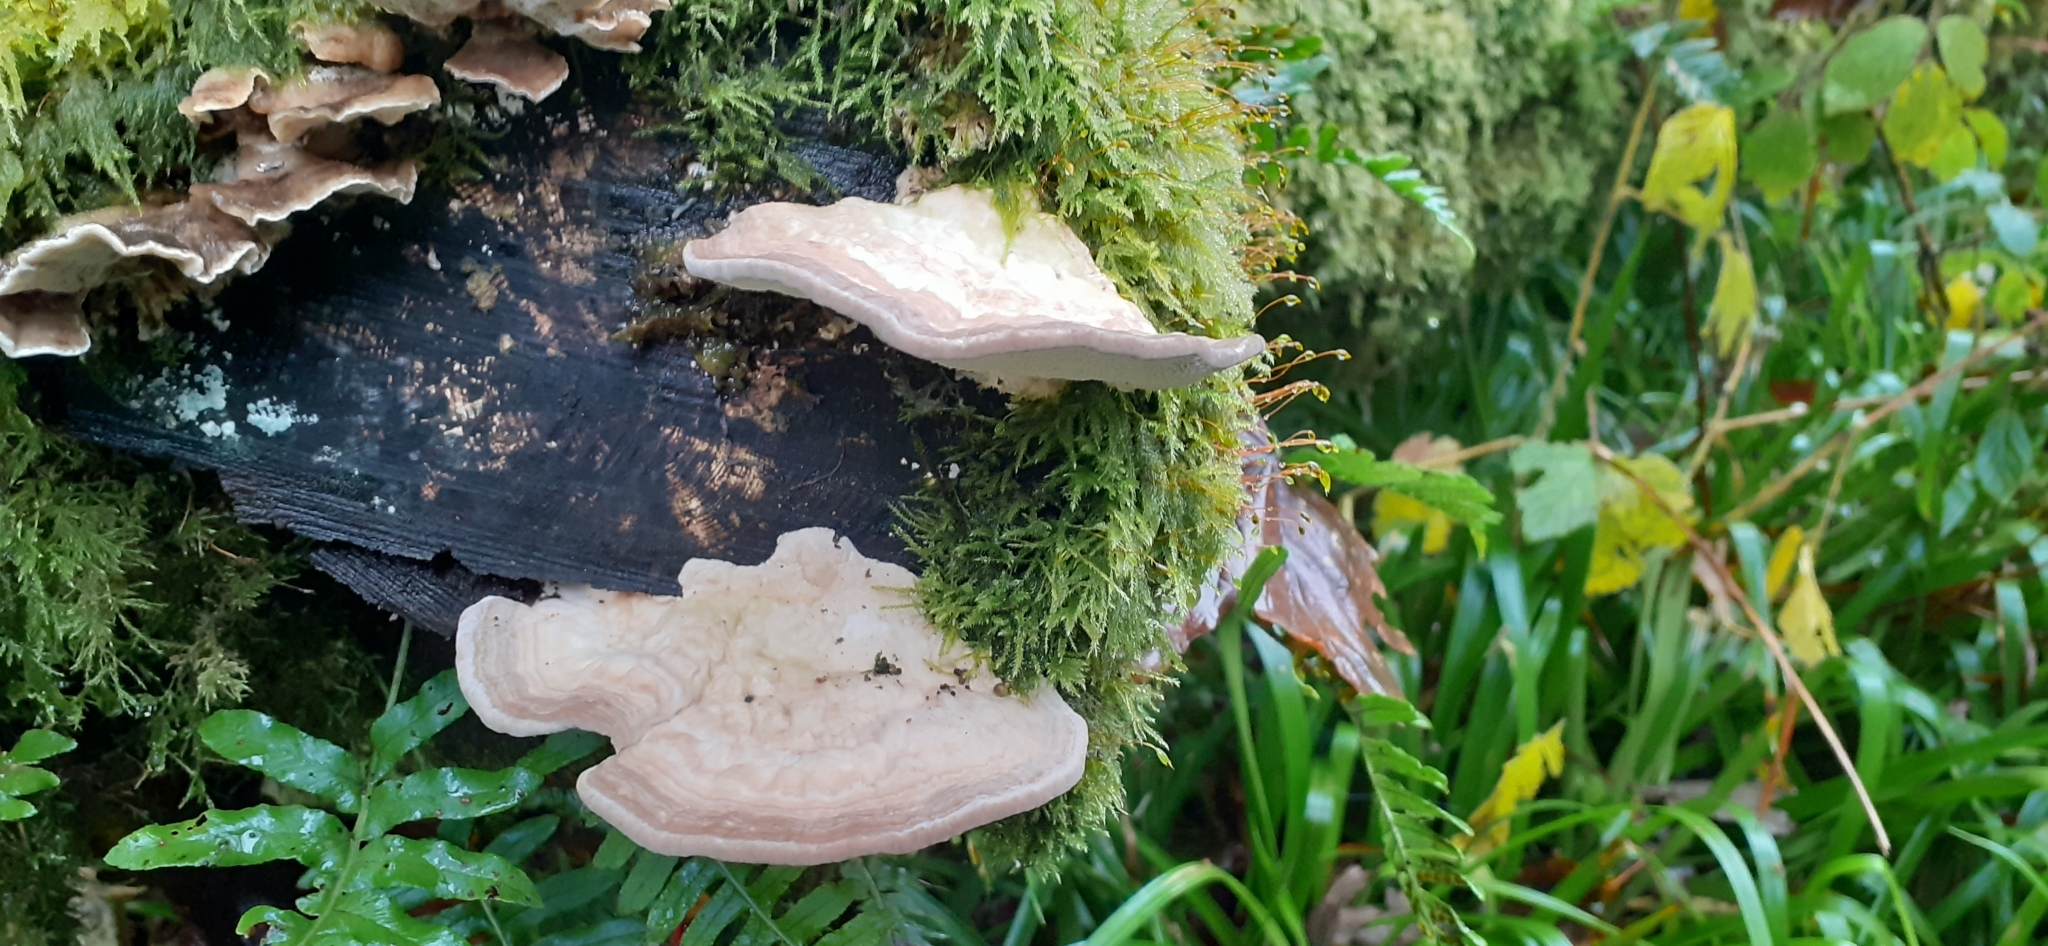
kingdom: Fungi
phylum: Basidiomycota
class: Agaricomycetes
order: Polyporales
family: Polyporaceae
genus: Trametes
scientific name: Trametes gibbosa
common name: Lumpy bracket
